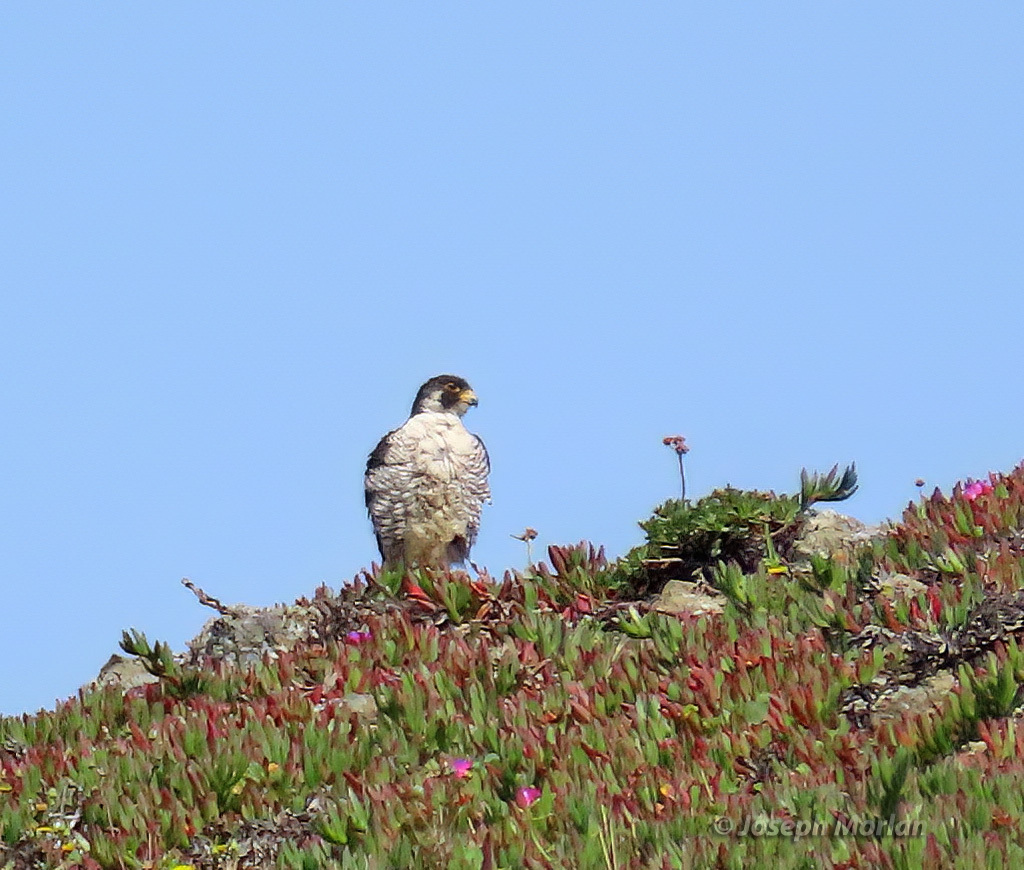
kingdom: Animalia
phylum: Chordata
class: Aves
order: Falconiformes
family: Falconidae
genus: Falco
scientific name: Falco peregrinus
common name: Peregrine falcon
